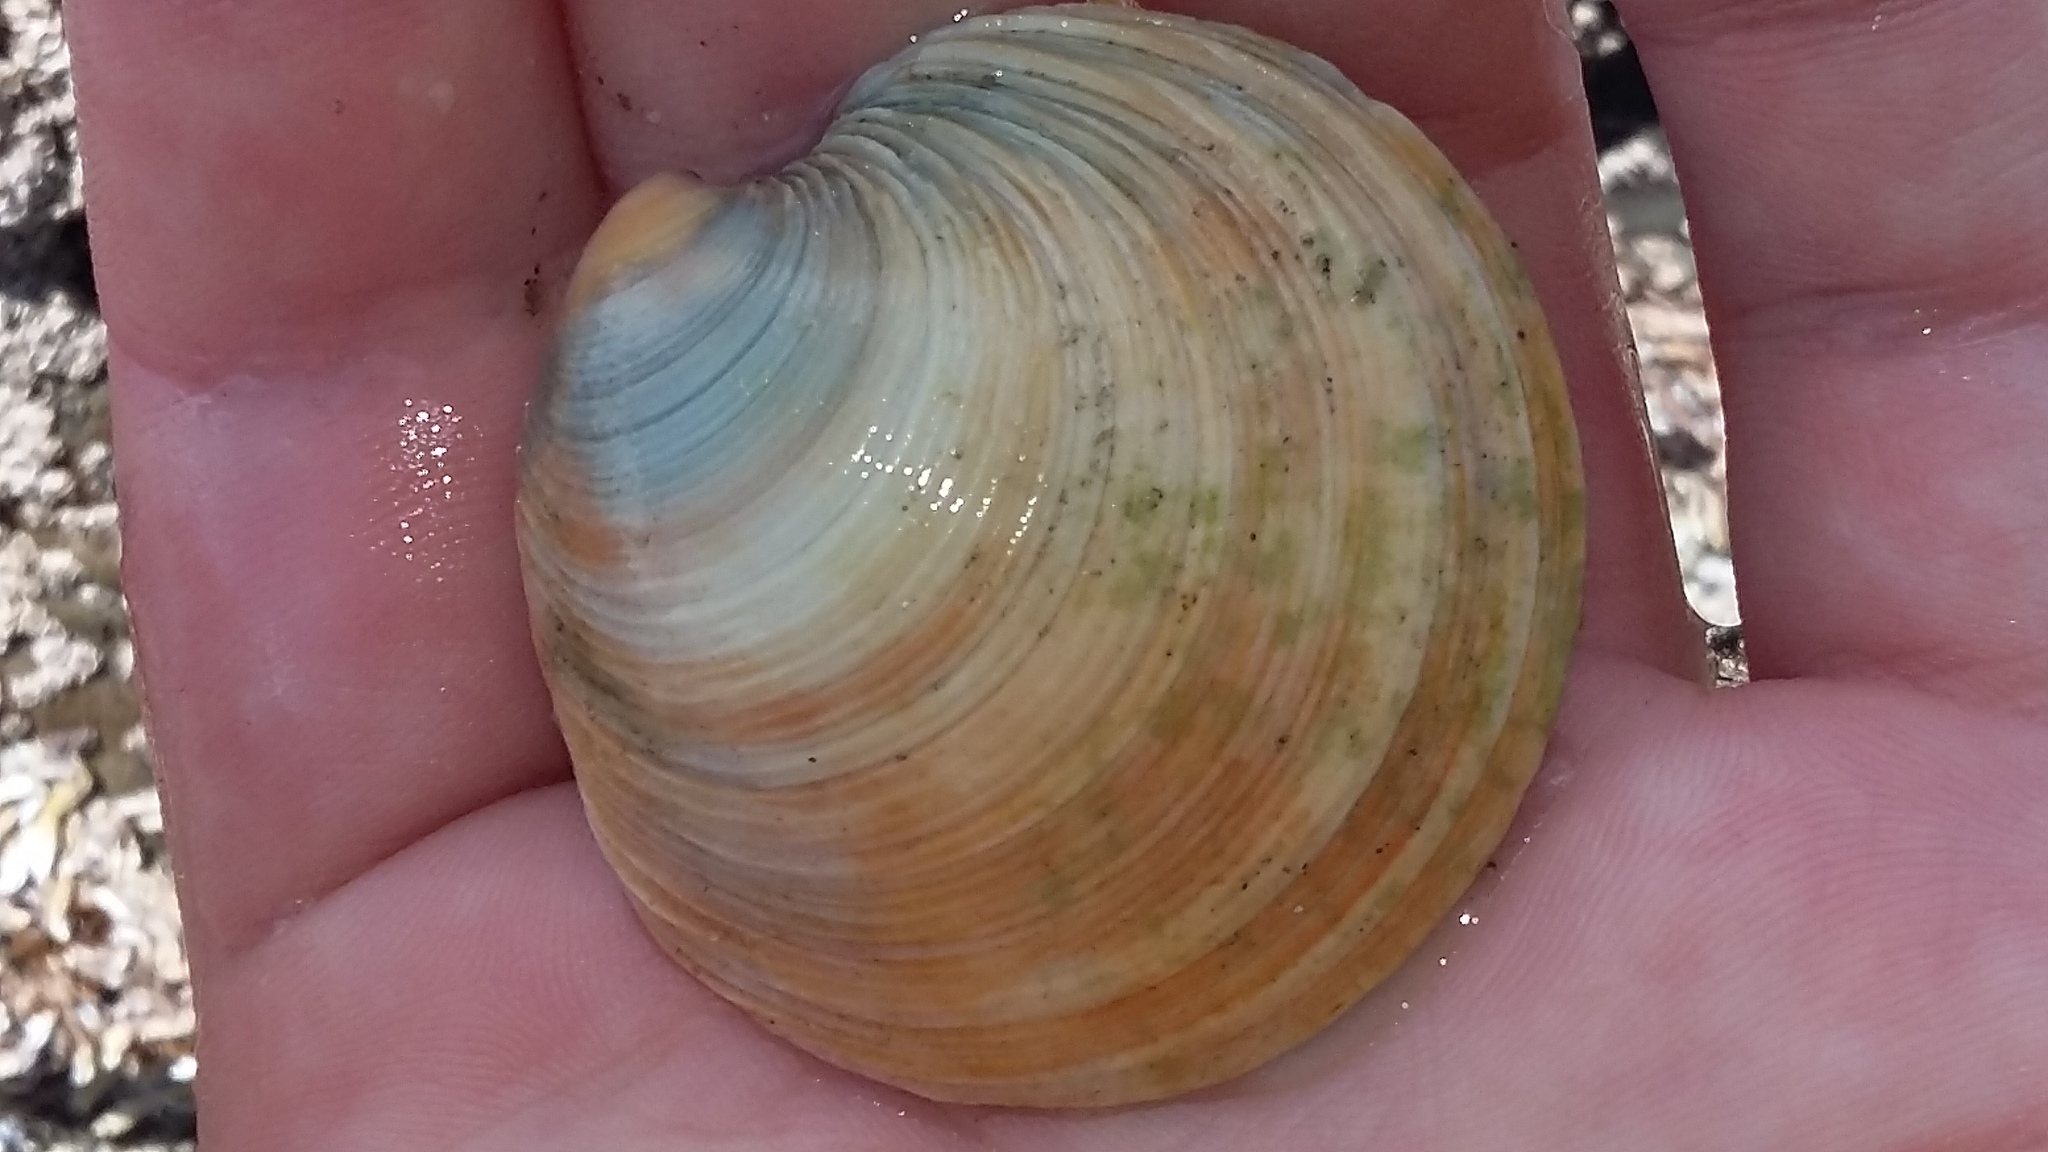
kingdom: Animalia
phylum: Mollusca
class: Bivalvia
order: Venerida
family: Veneridae
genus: Dosinia
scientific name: Dosinia anus
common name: Old-woman dosinia
